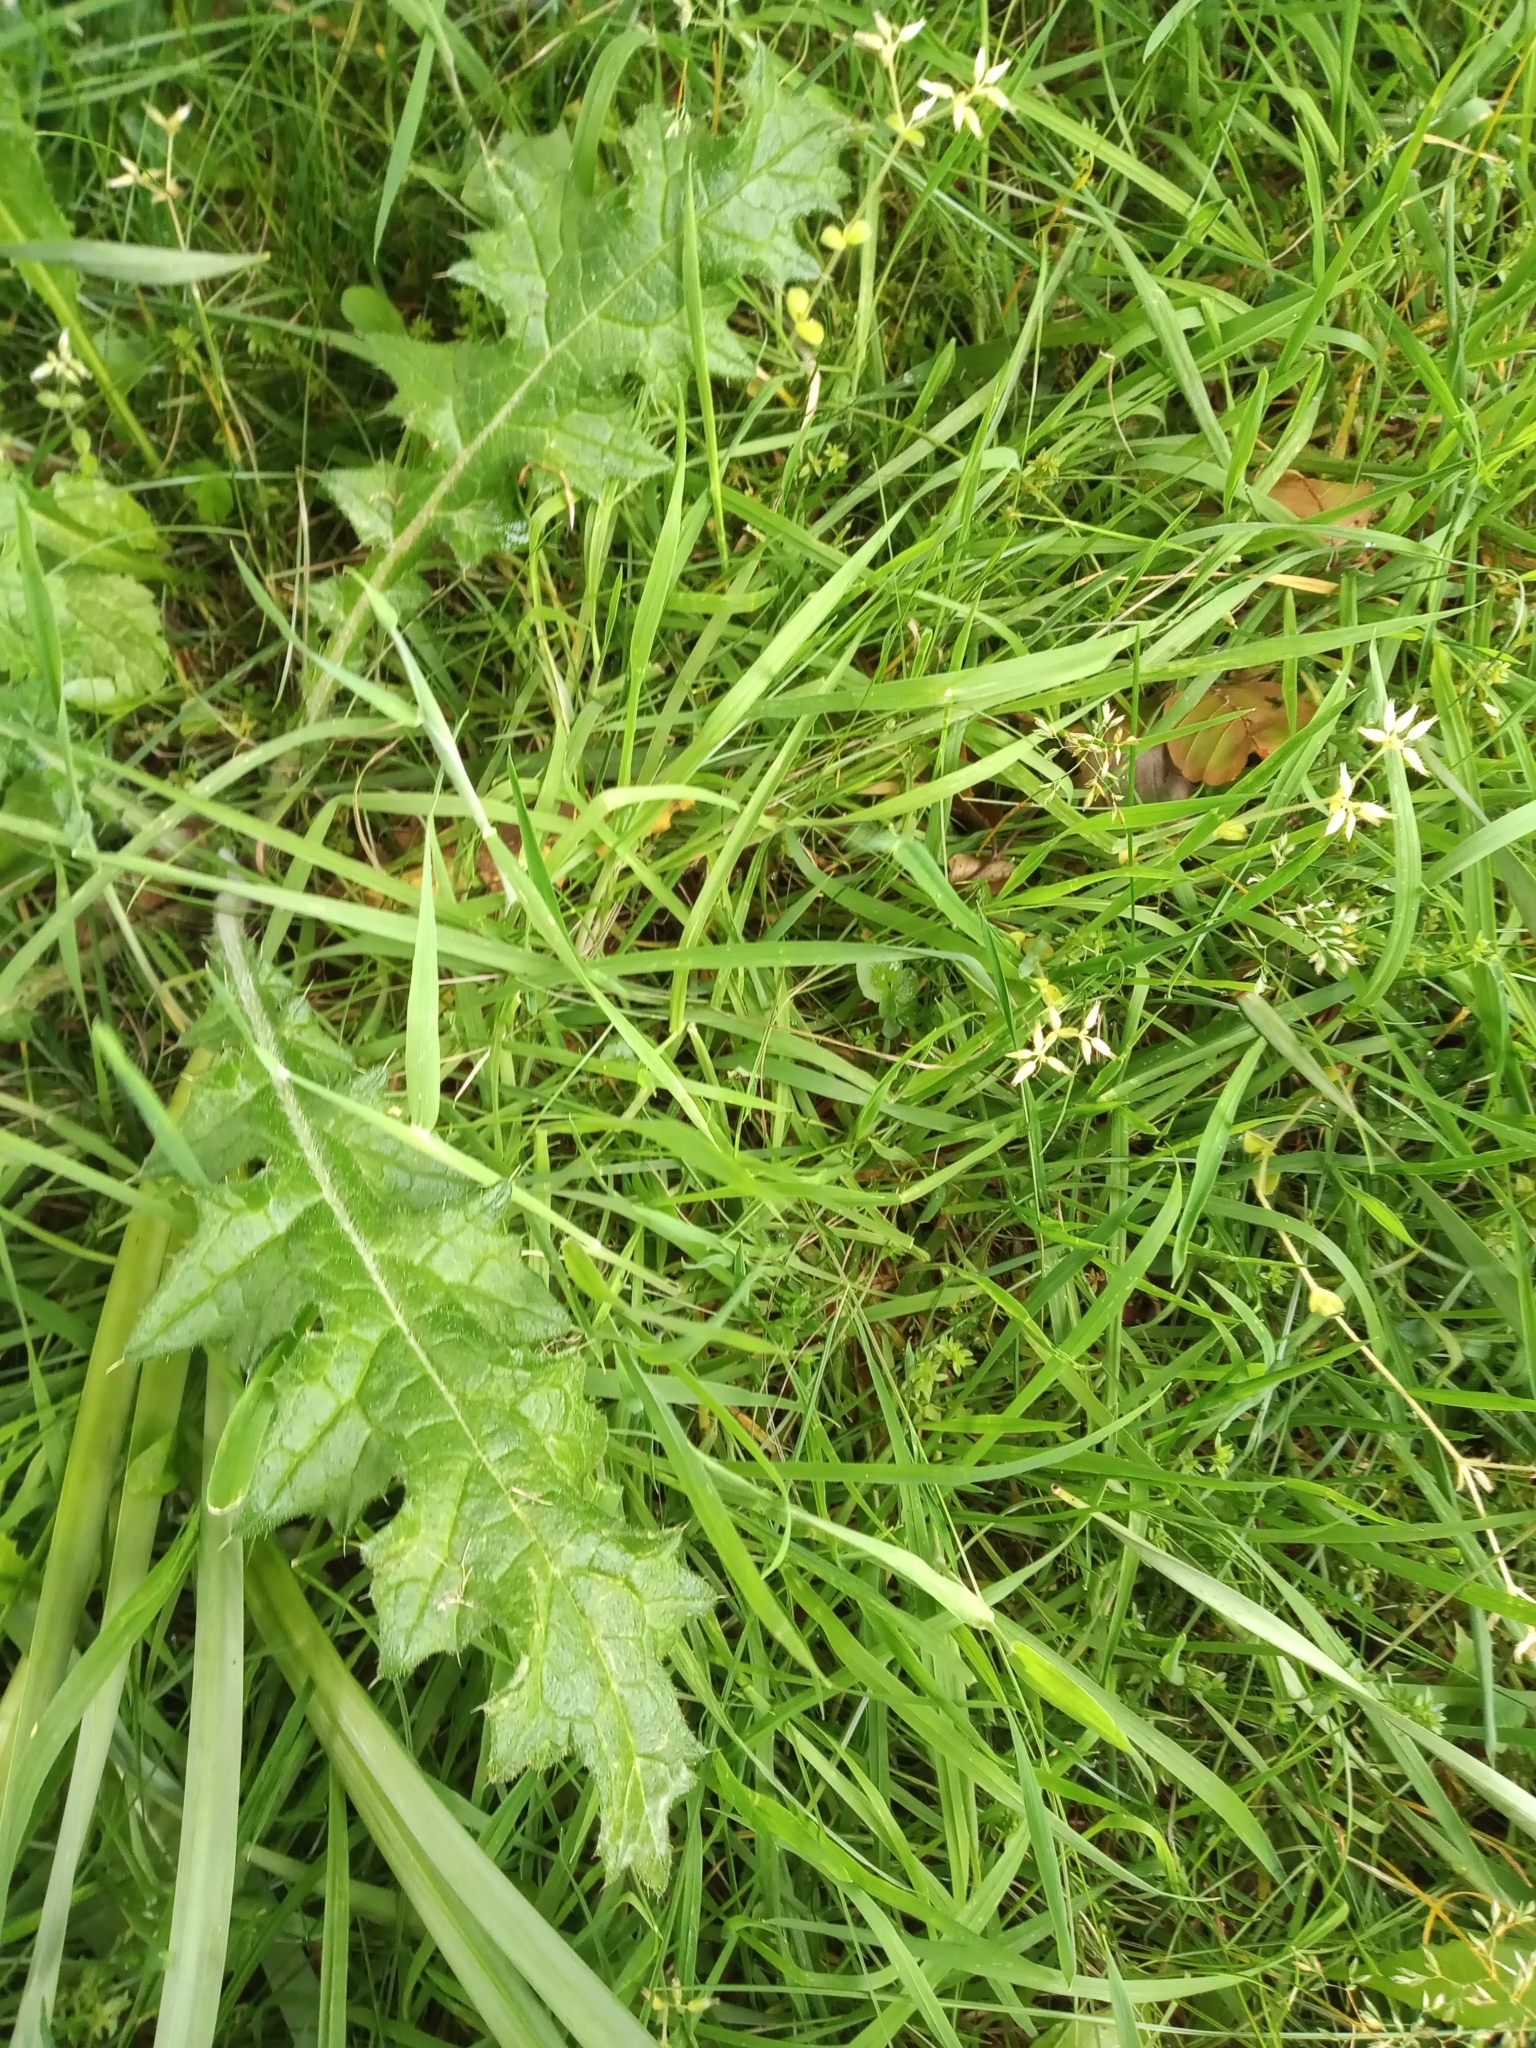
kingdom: Plantae
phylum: Tracheophyta
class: Magnoliopsida
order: Asterales
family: Asteraceae
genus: Cirsium
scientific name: Cirsium arvense
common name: Creeping thistle
